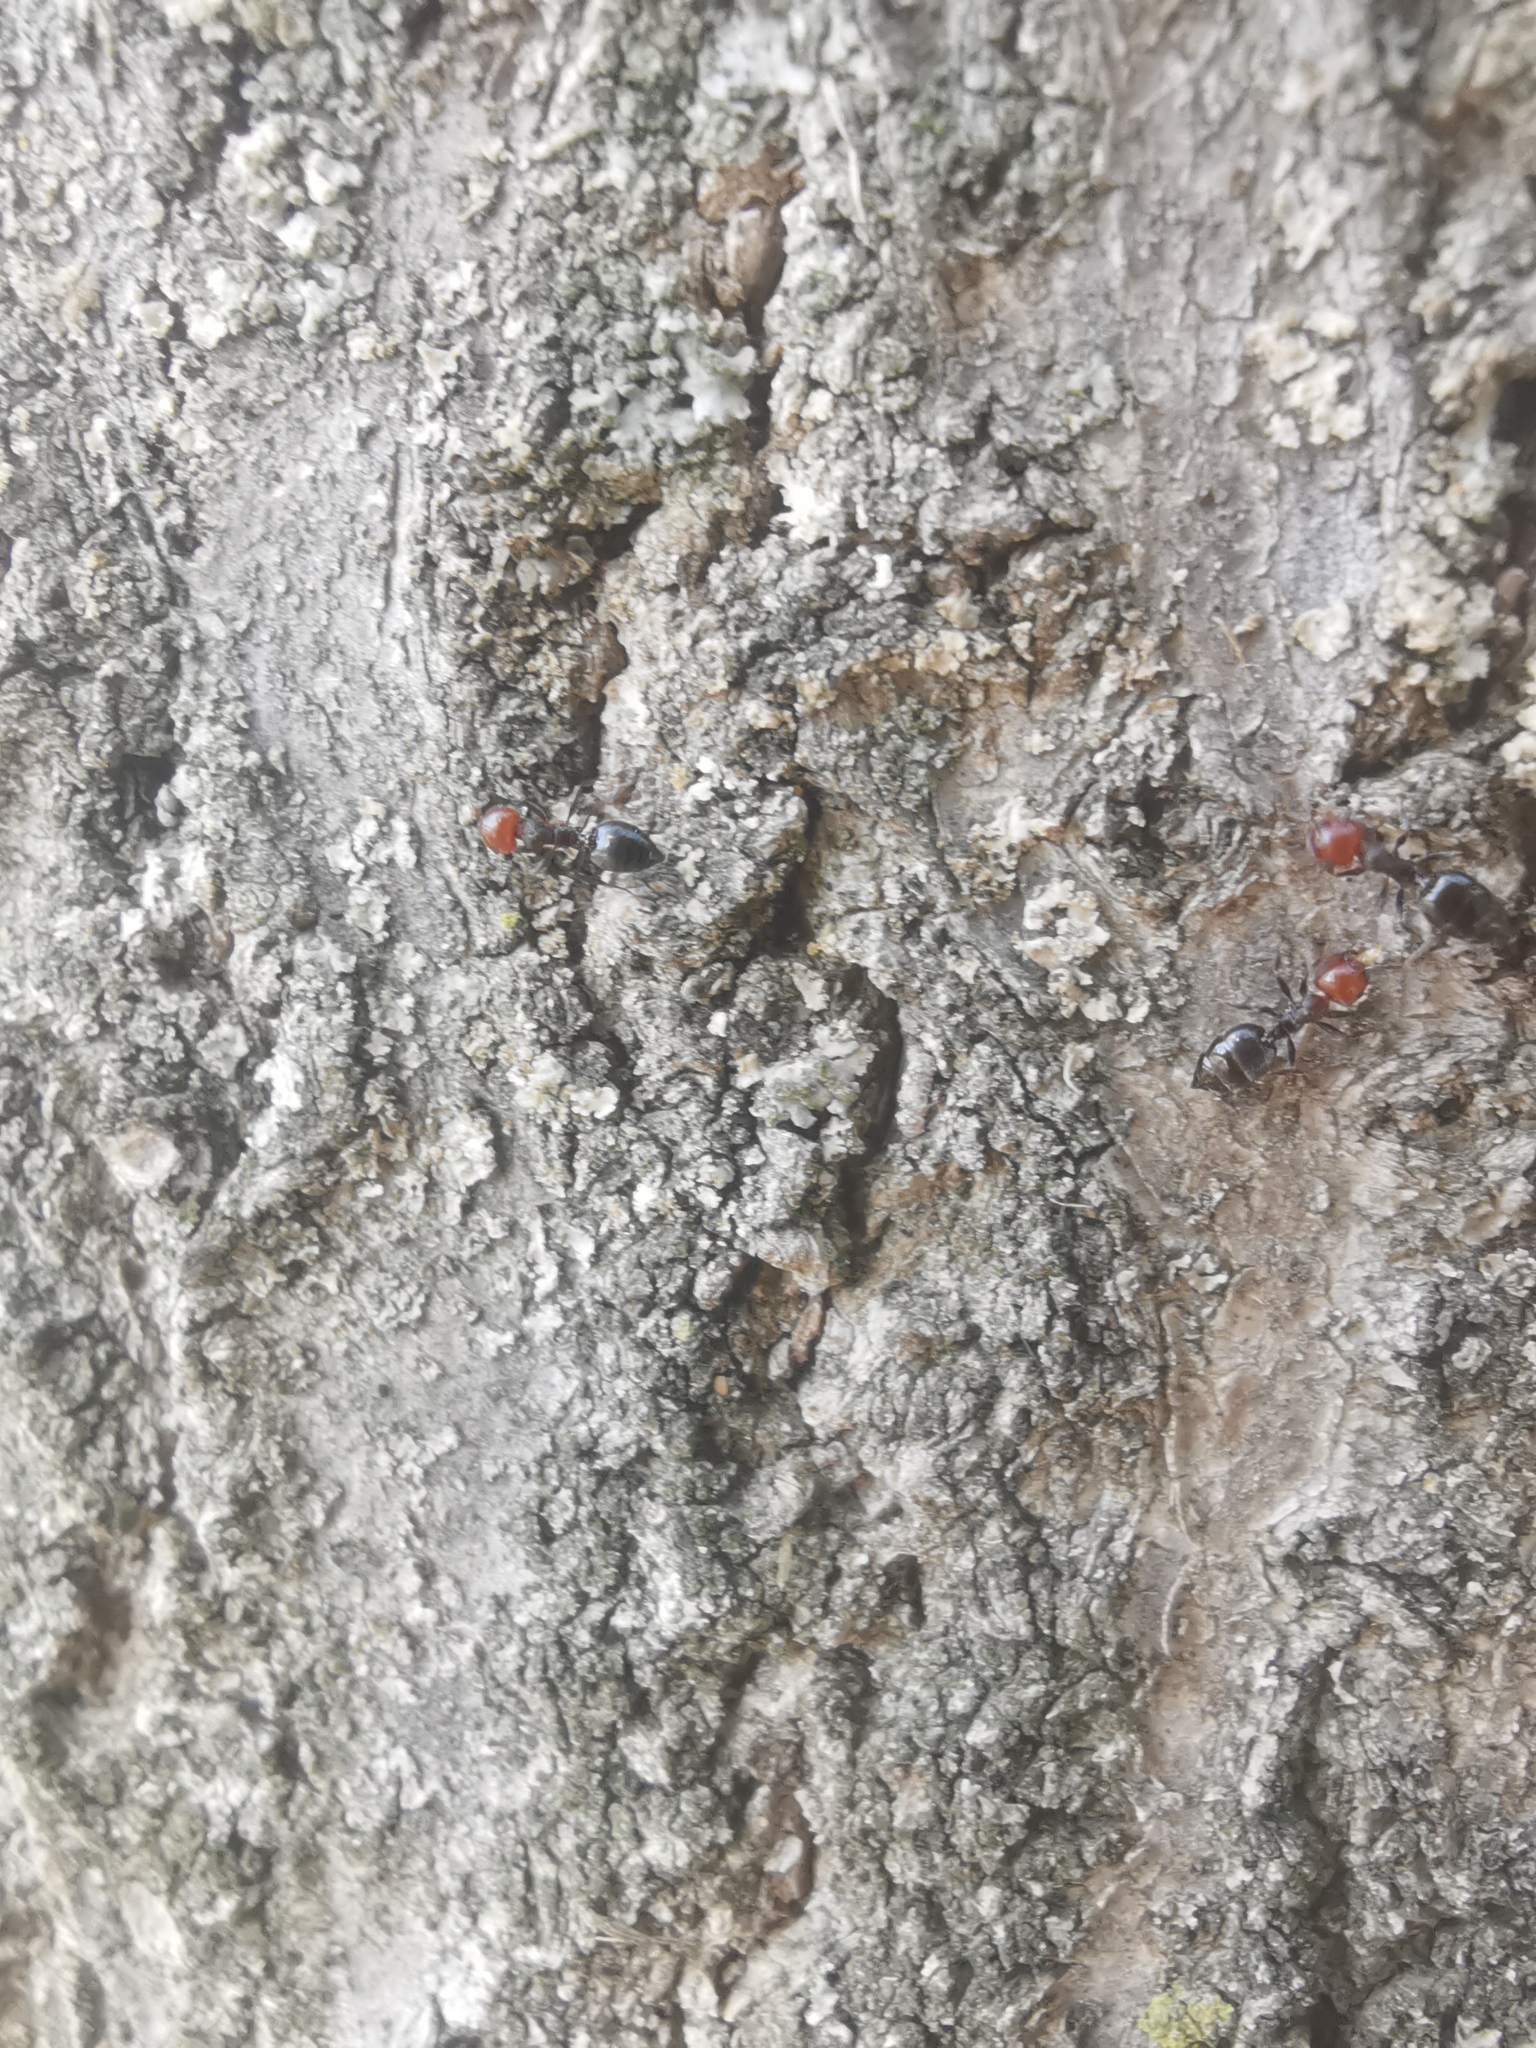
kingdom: Animalia
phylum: Arthropoda
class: Insecta
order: Hymenoptera
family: Formicidae
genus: Crematogaster
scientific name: Crematogaster scutellaris
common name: Fourmi du liège
